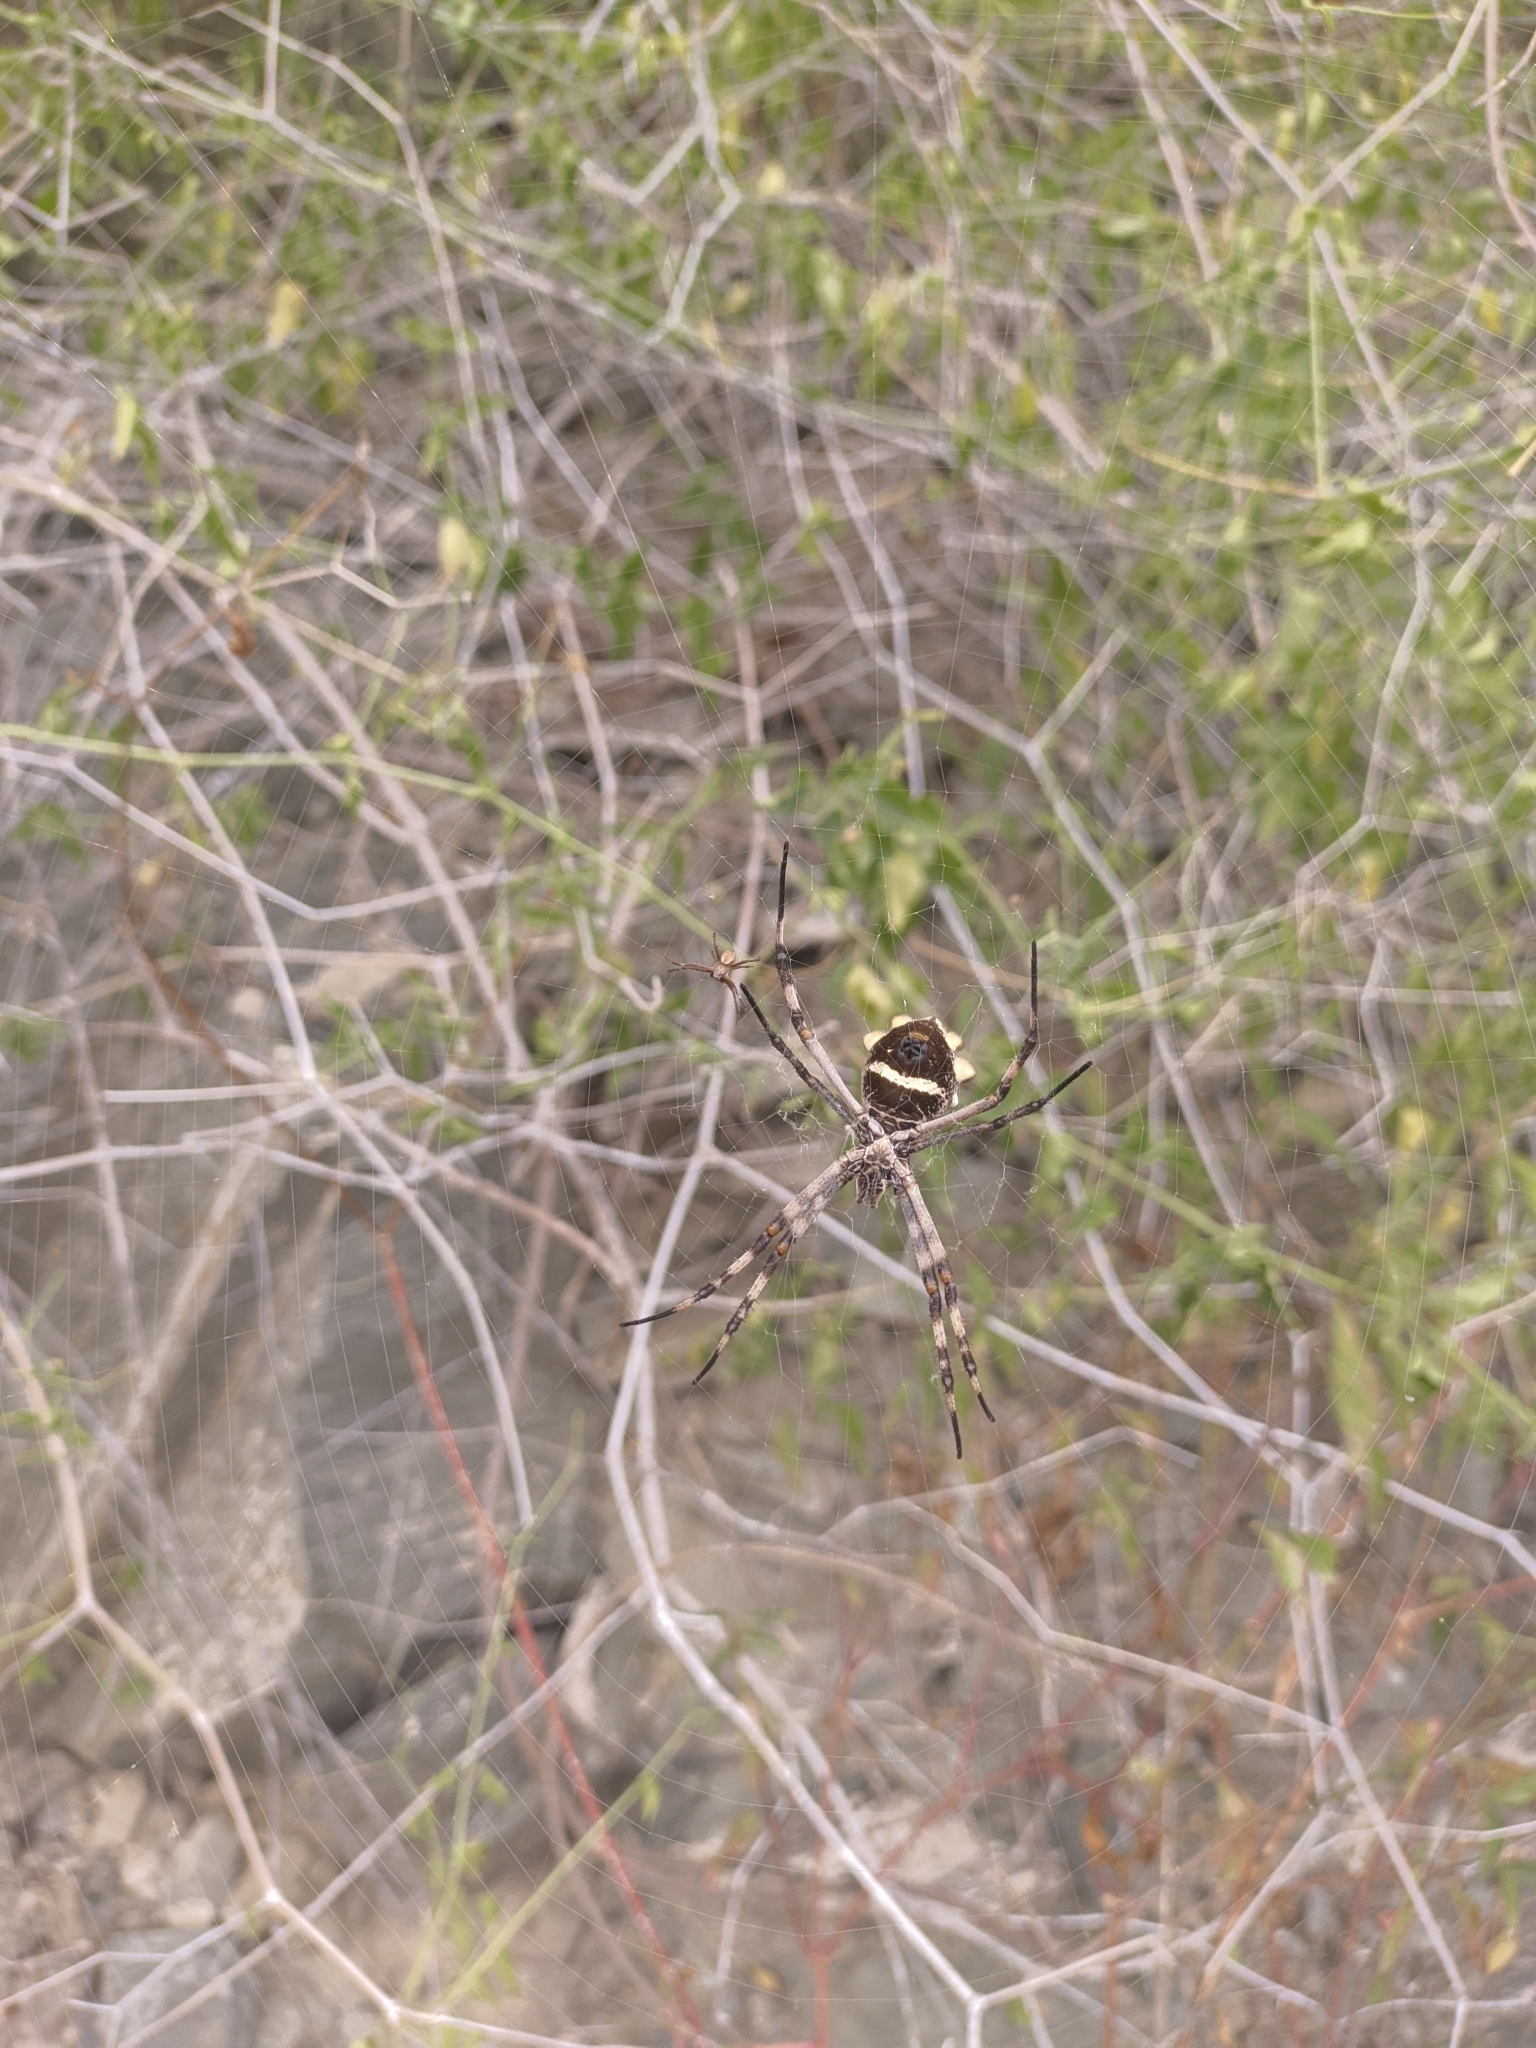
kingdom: Animalia
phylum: Arthropoda
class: Arachnida
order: Araneae
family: Araneidae
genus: Argiope
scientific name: Argiope argentata
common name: Orb weavers
